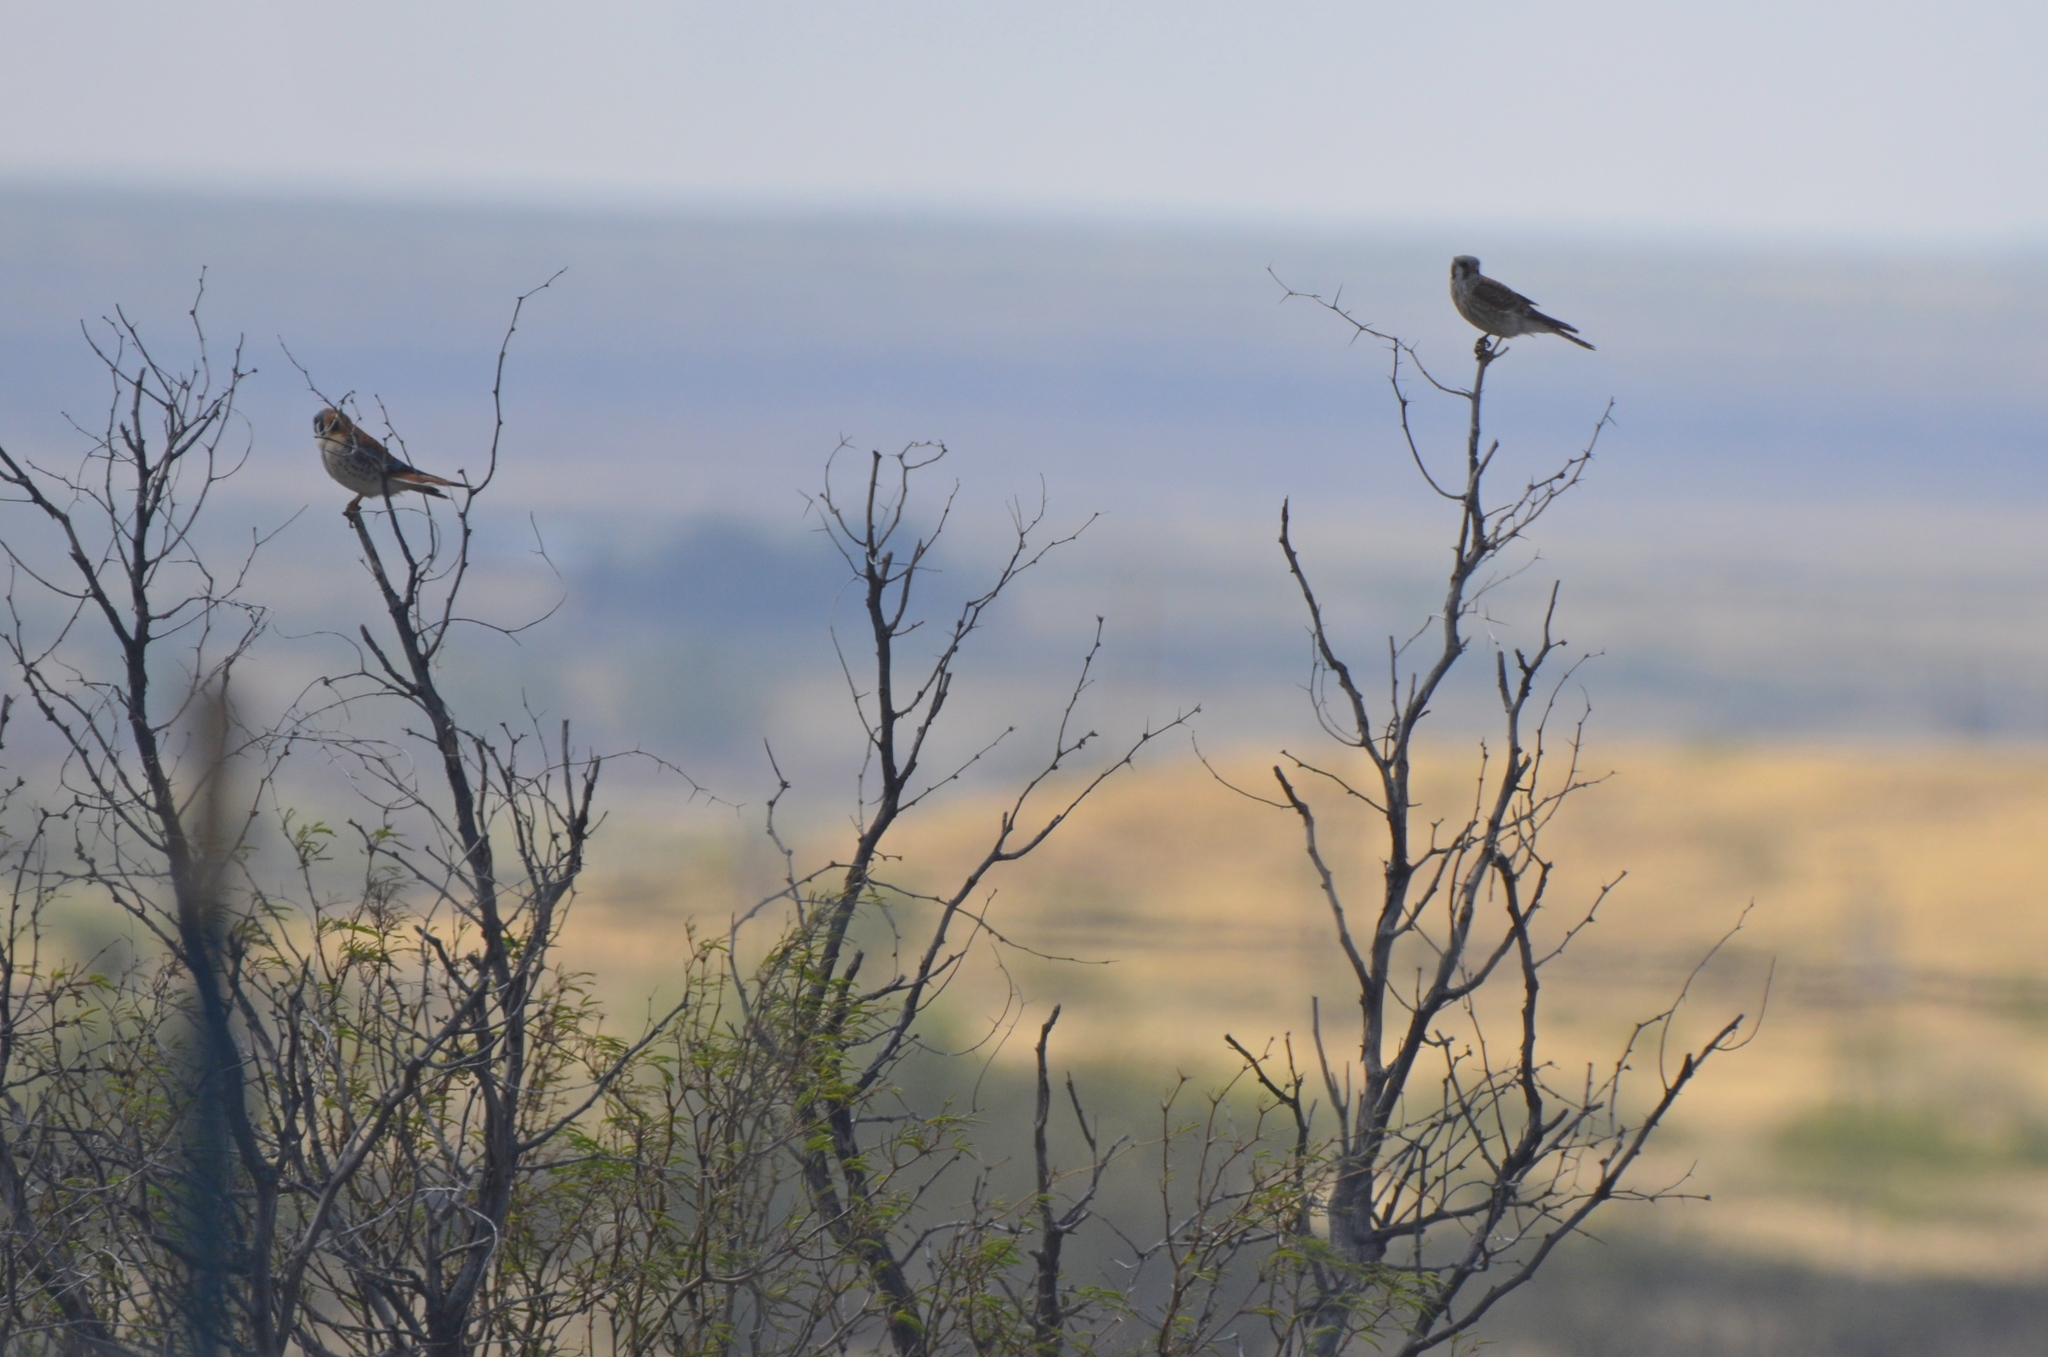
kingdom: Animalia
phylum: Chordata
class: Aves
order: Falconiformes
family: Falconidae
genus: Falco
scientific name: Falco sparverius
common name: American kestrel
